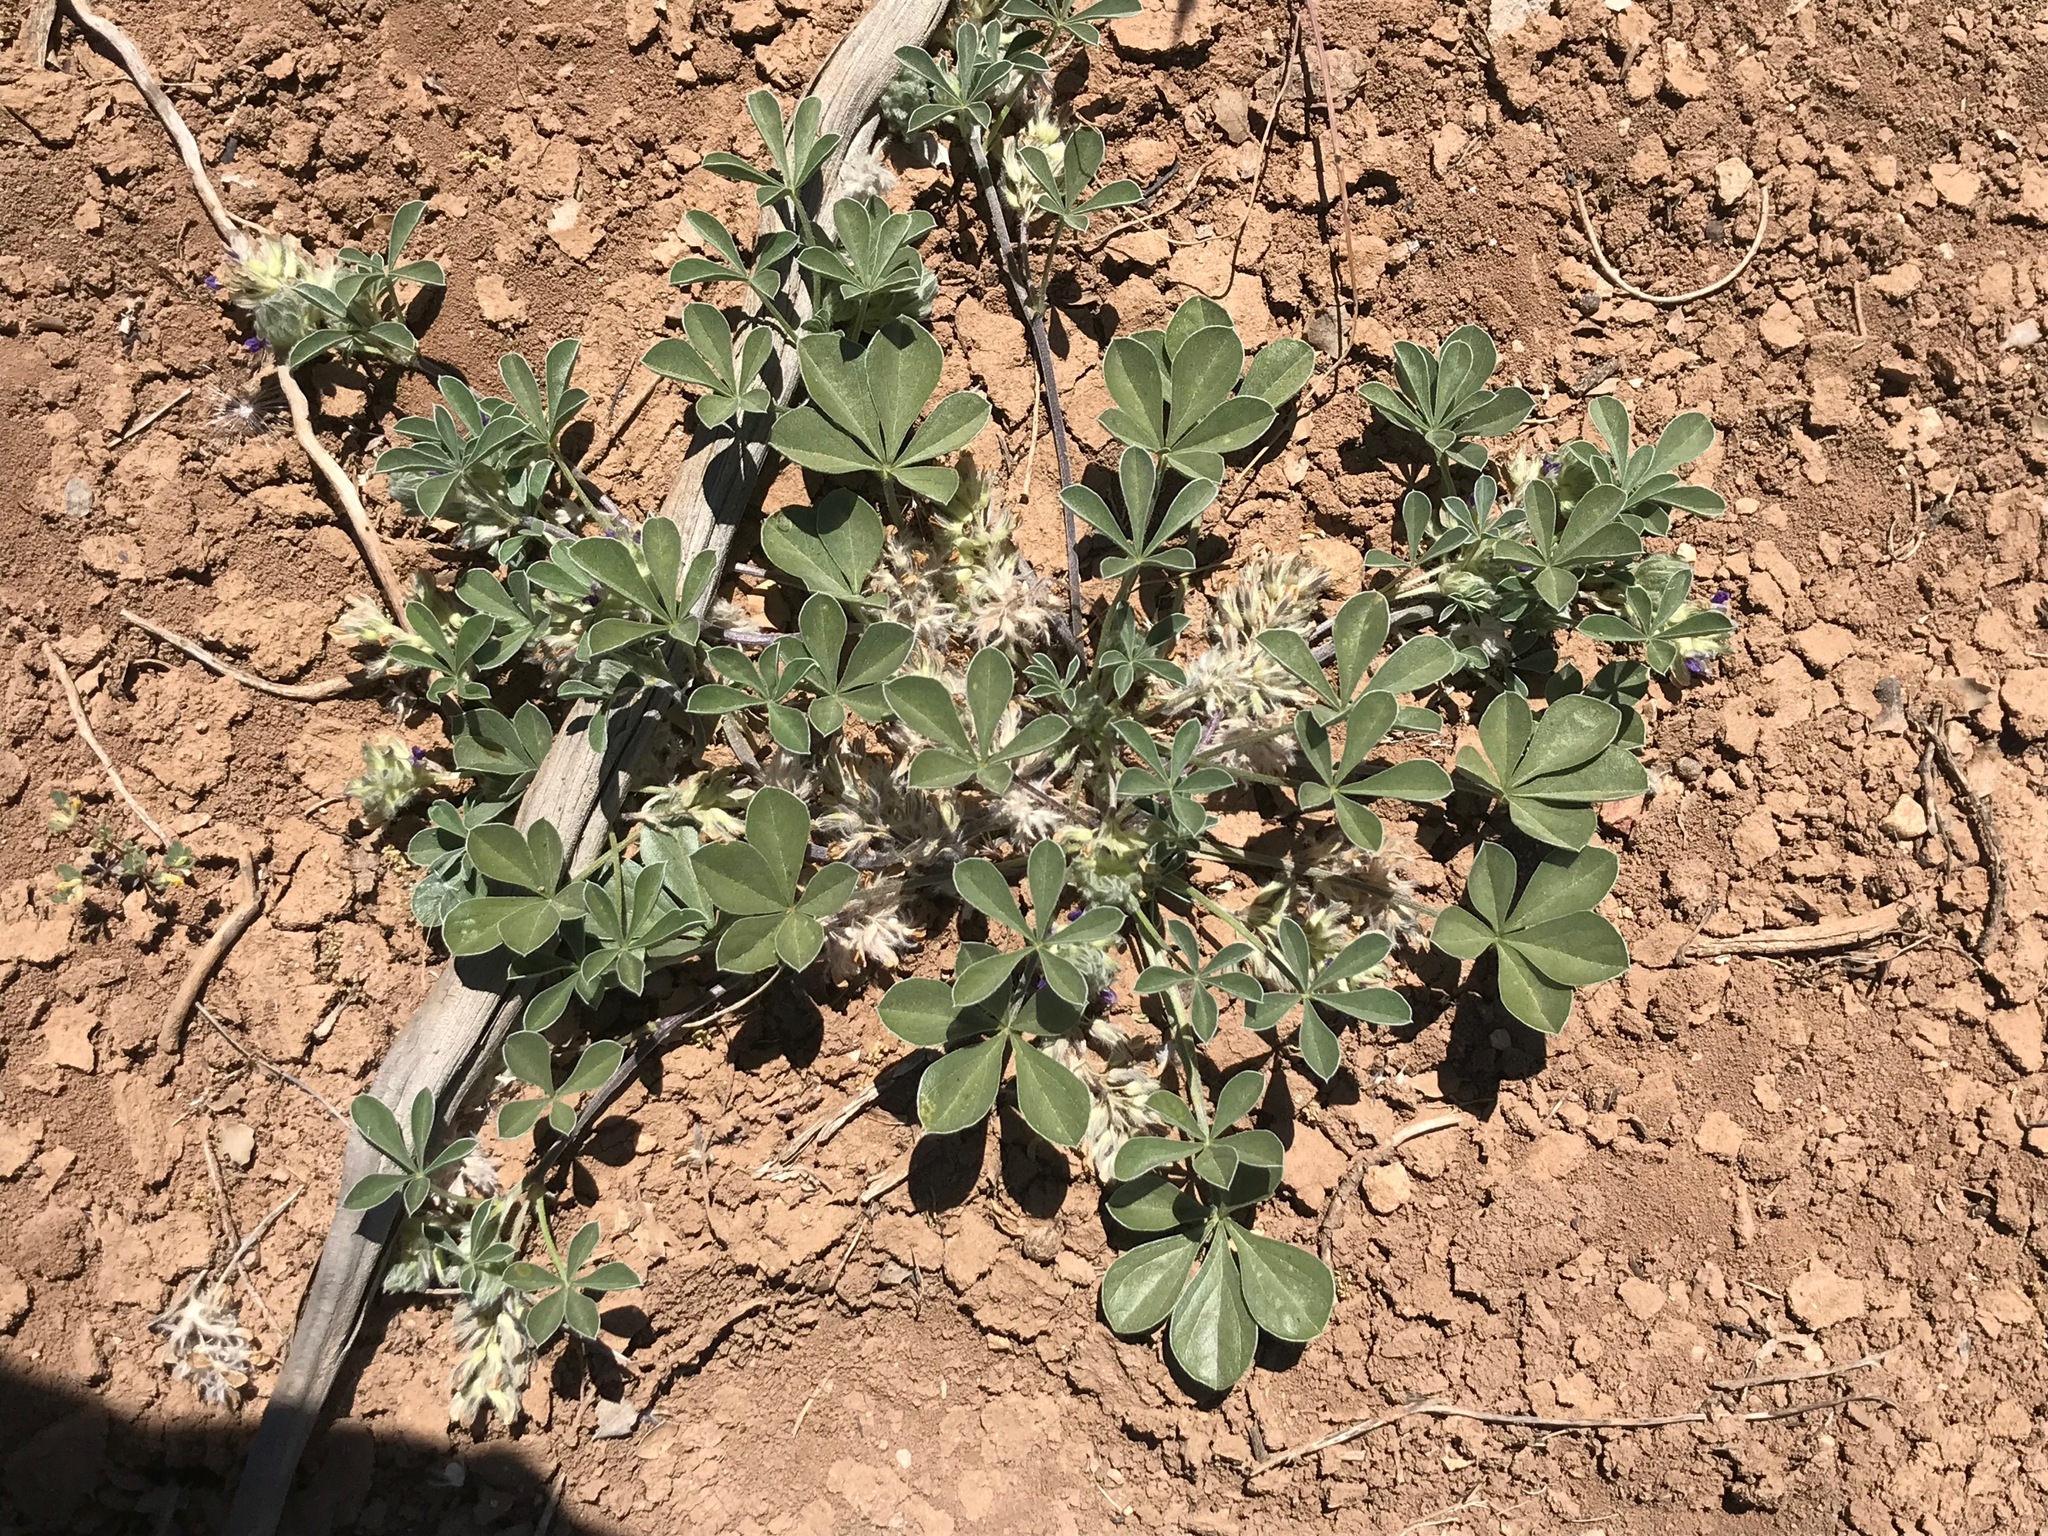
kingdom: Plantae
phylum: Tracheophyta
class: Magnoliopsida
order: Fabales
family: Fabaceae
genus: Pediomelum
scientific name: Pediomelum californicum
